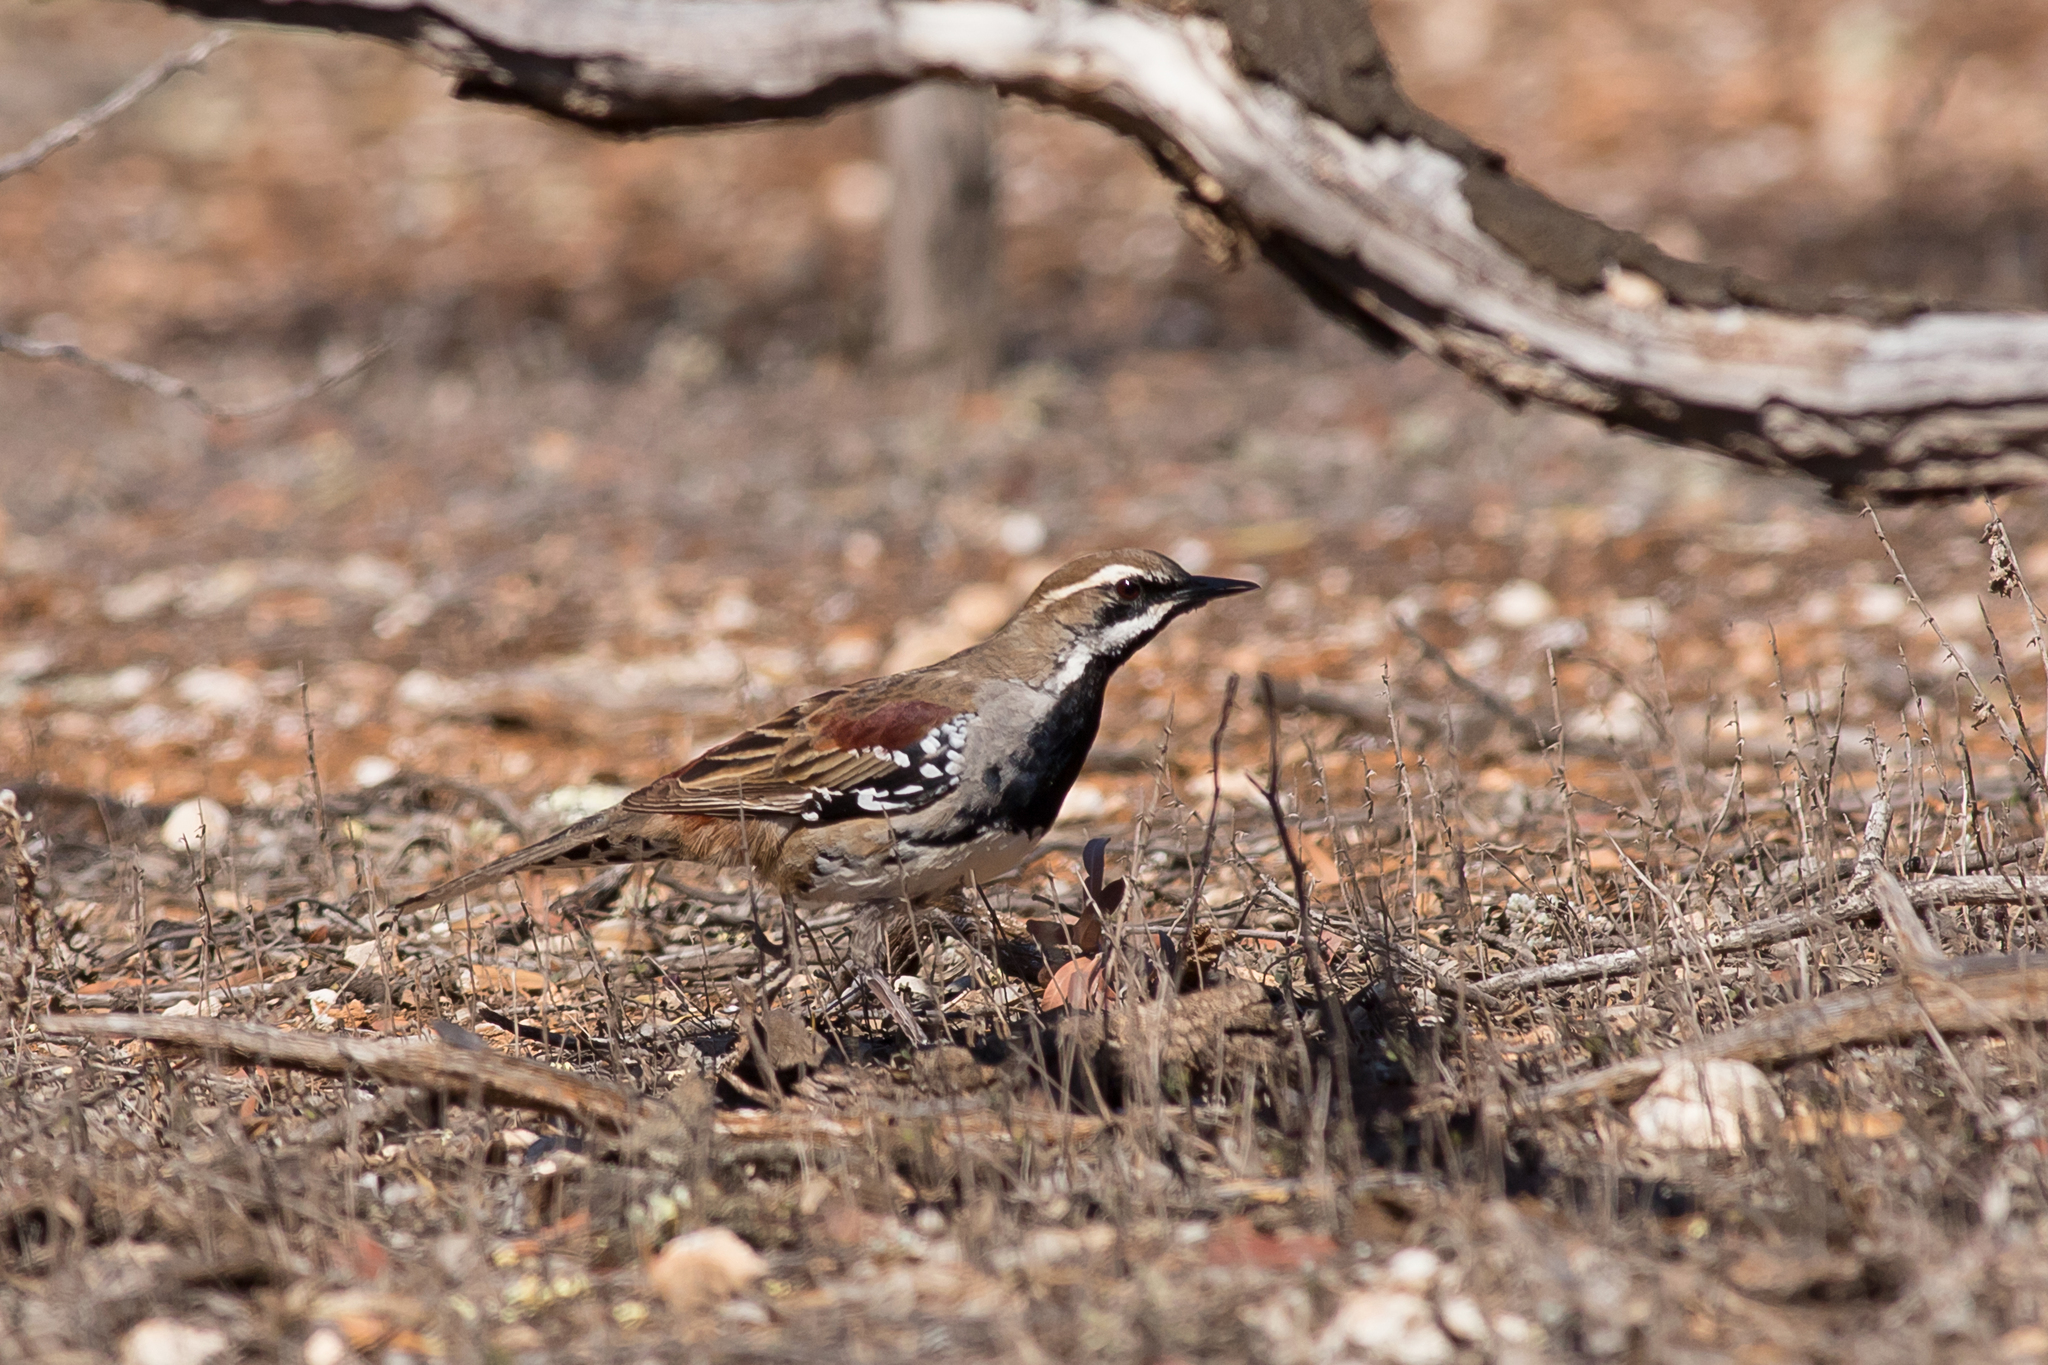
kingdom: Animalia
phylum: Chordata
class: Aves
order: Passeriformes
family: Psophodidae
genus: Cinclosoma
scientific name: Cinclosoma castanotum
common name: Chestnut quail-thrush
